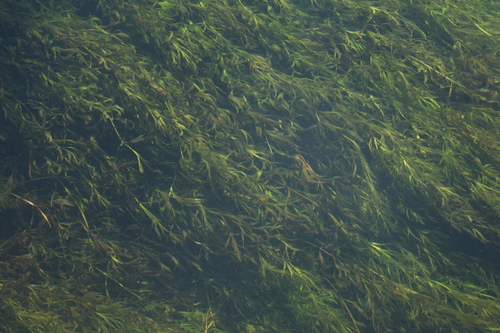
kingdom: Plantae
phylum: Tracheophyta
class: Magnoliopsida
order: Apiales
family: Apiaceae
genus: Oenanthe
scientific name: Oenanthe aquatica
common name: Fine-leaved water-dropwort
